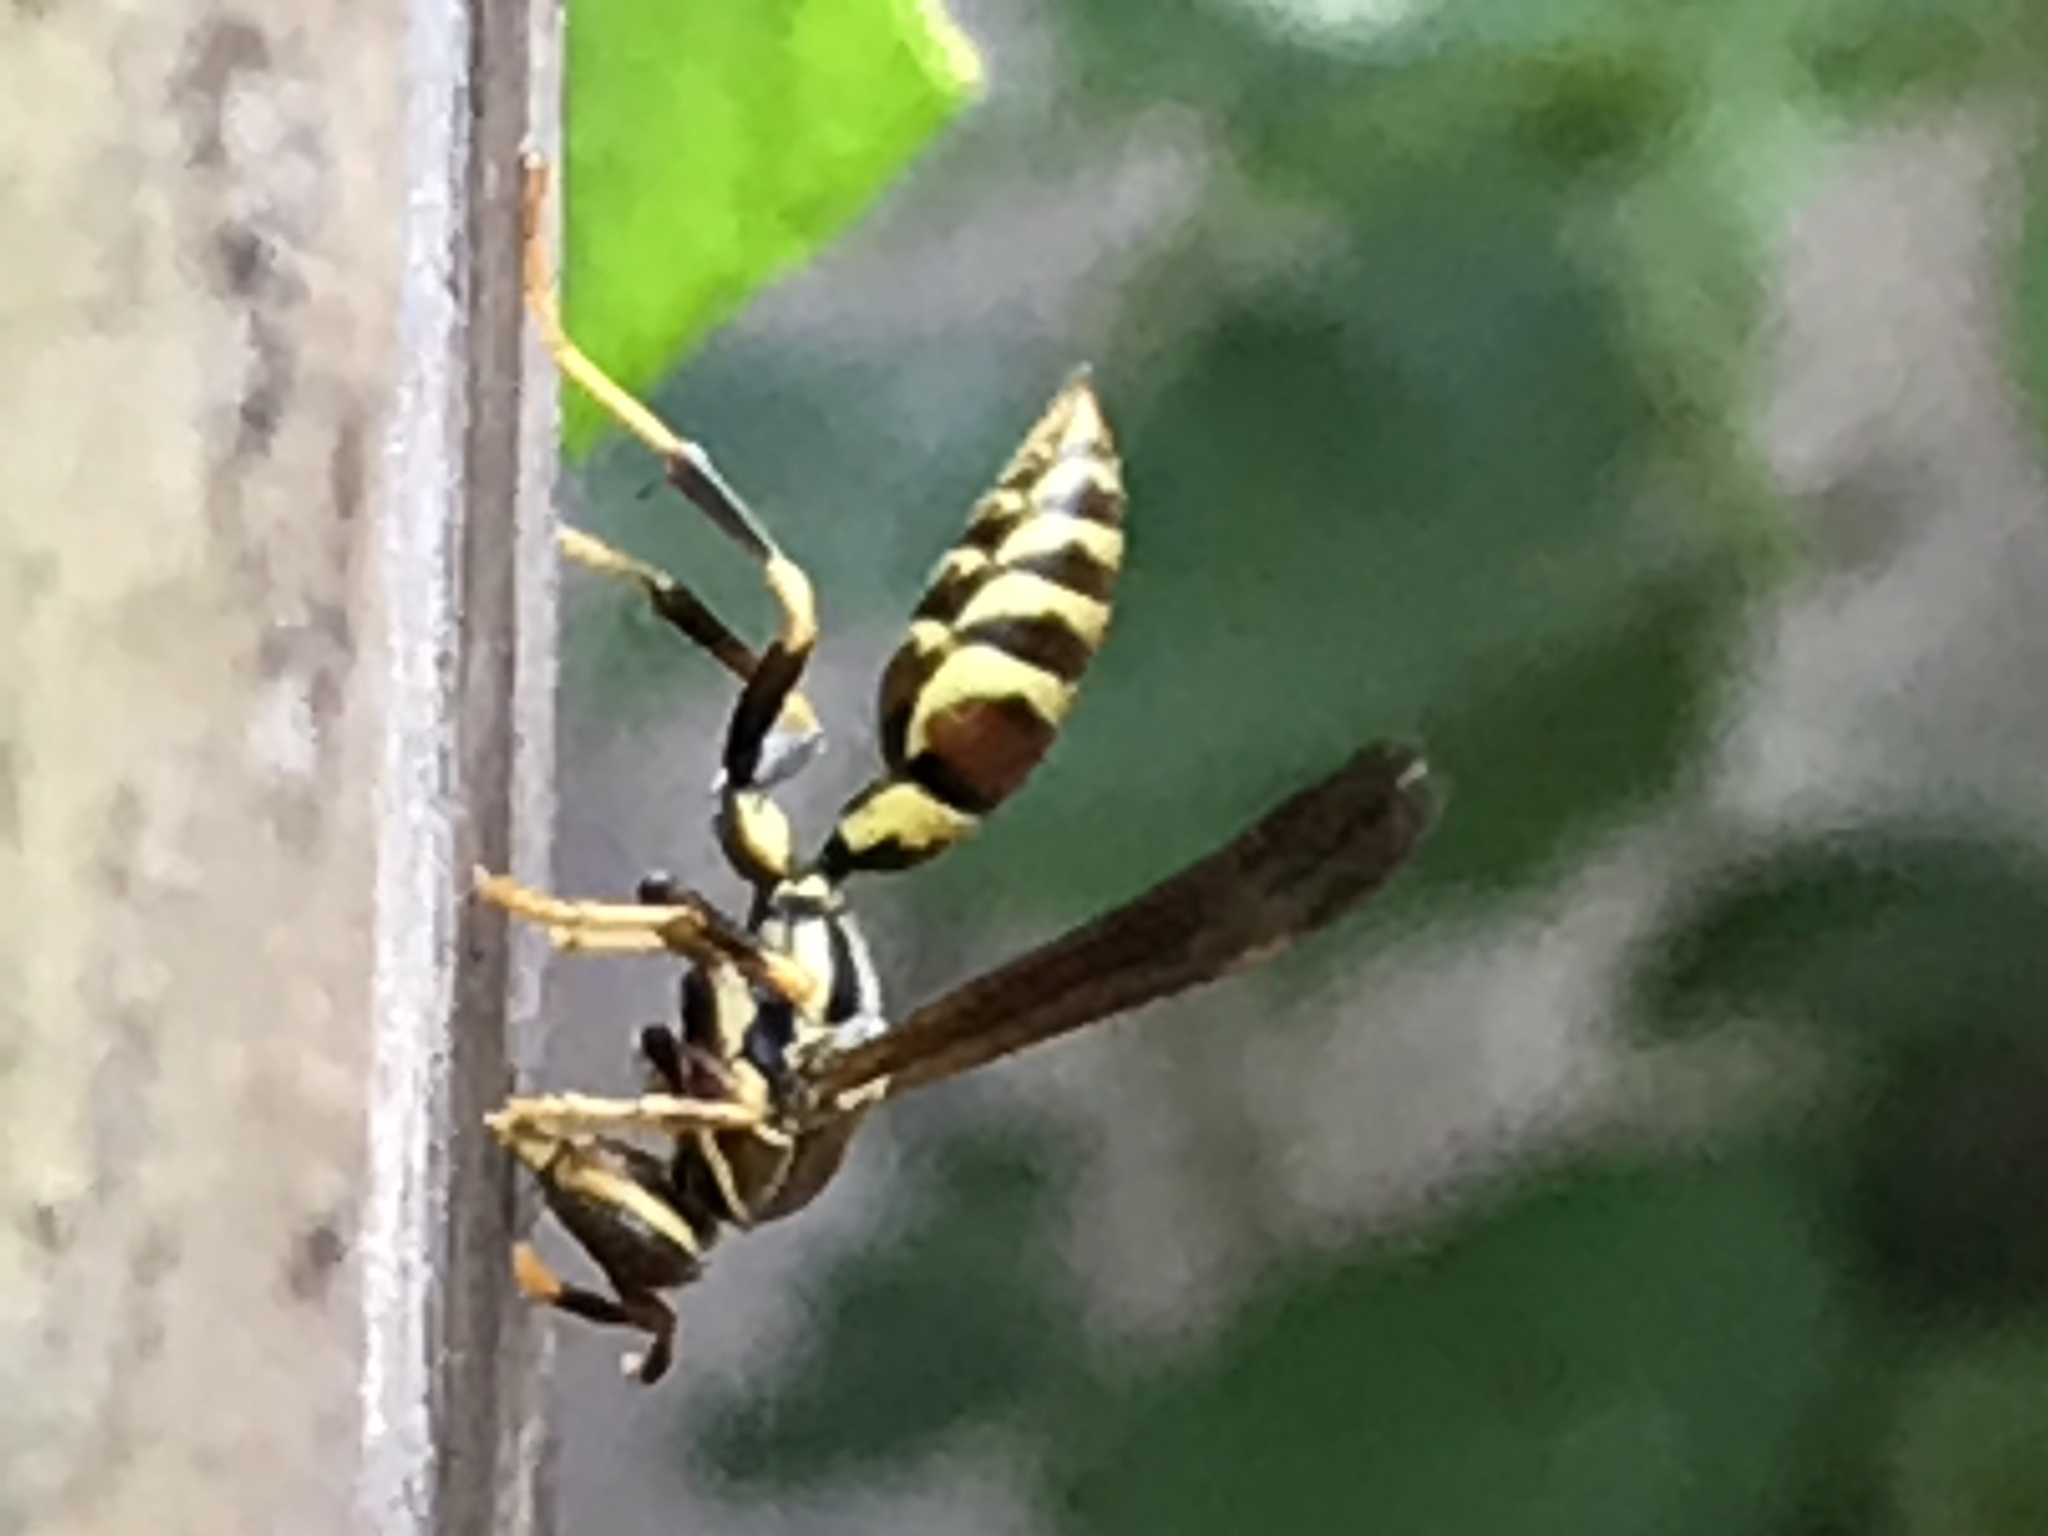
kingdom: Animalia
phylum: Arthropoda
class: Insecta
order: Hymenoptera
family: Eumenidae
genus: Polistes
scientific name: Polistes exclamans
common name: Paper wasp
